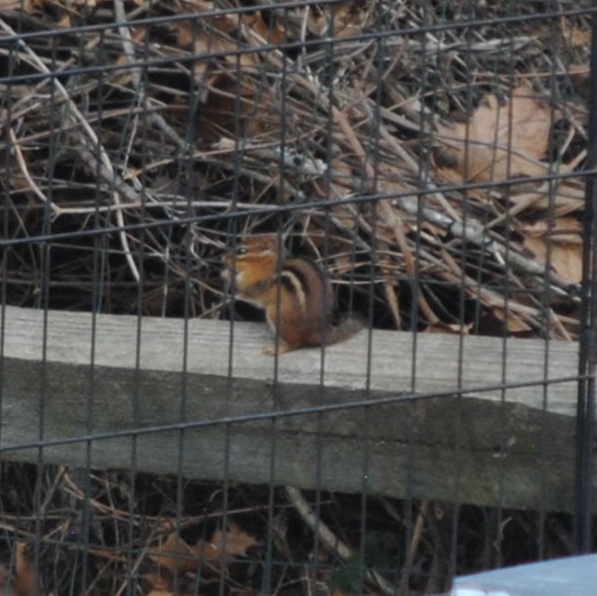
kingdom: Animalia
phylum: Chordata
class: Mammalia
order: Rodentia
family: Sciuridae
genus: Tamias
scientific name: Tamias striatus
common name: Eastern chipmunk
